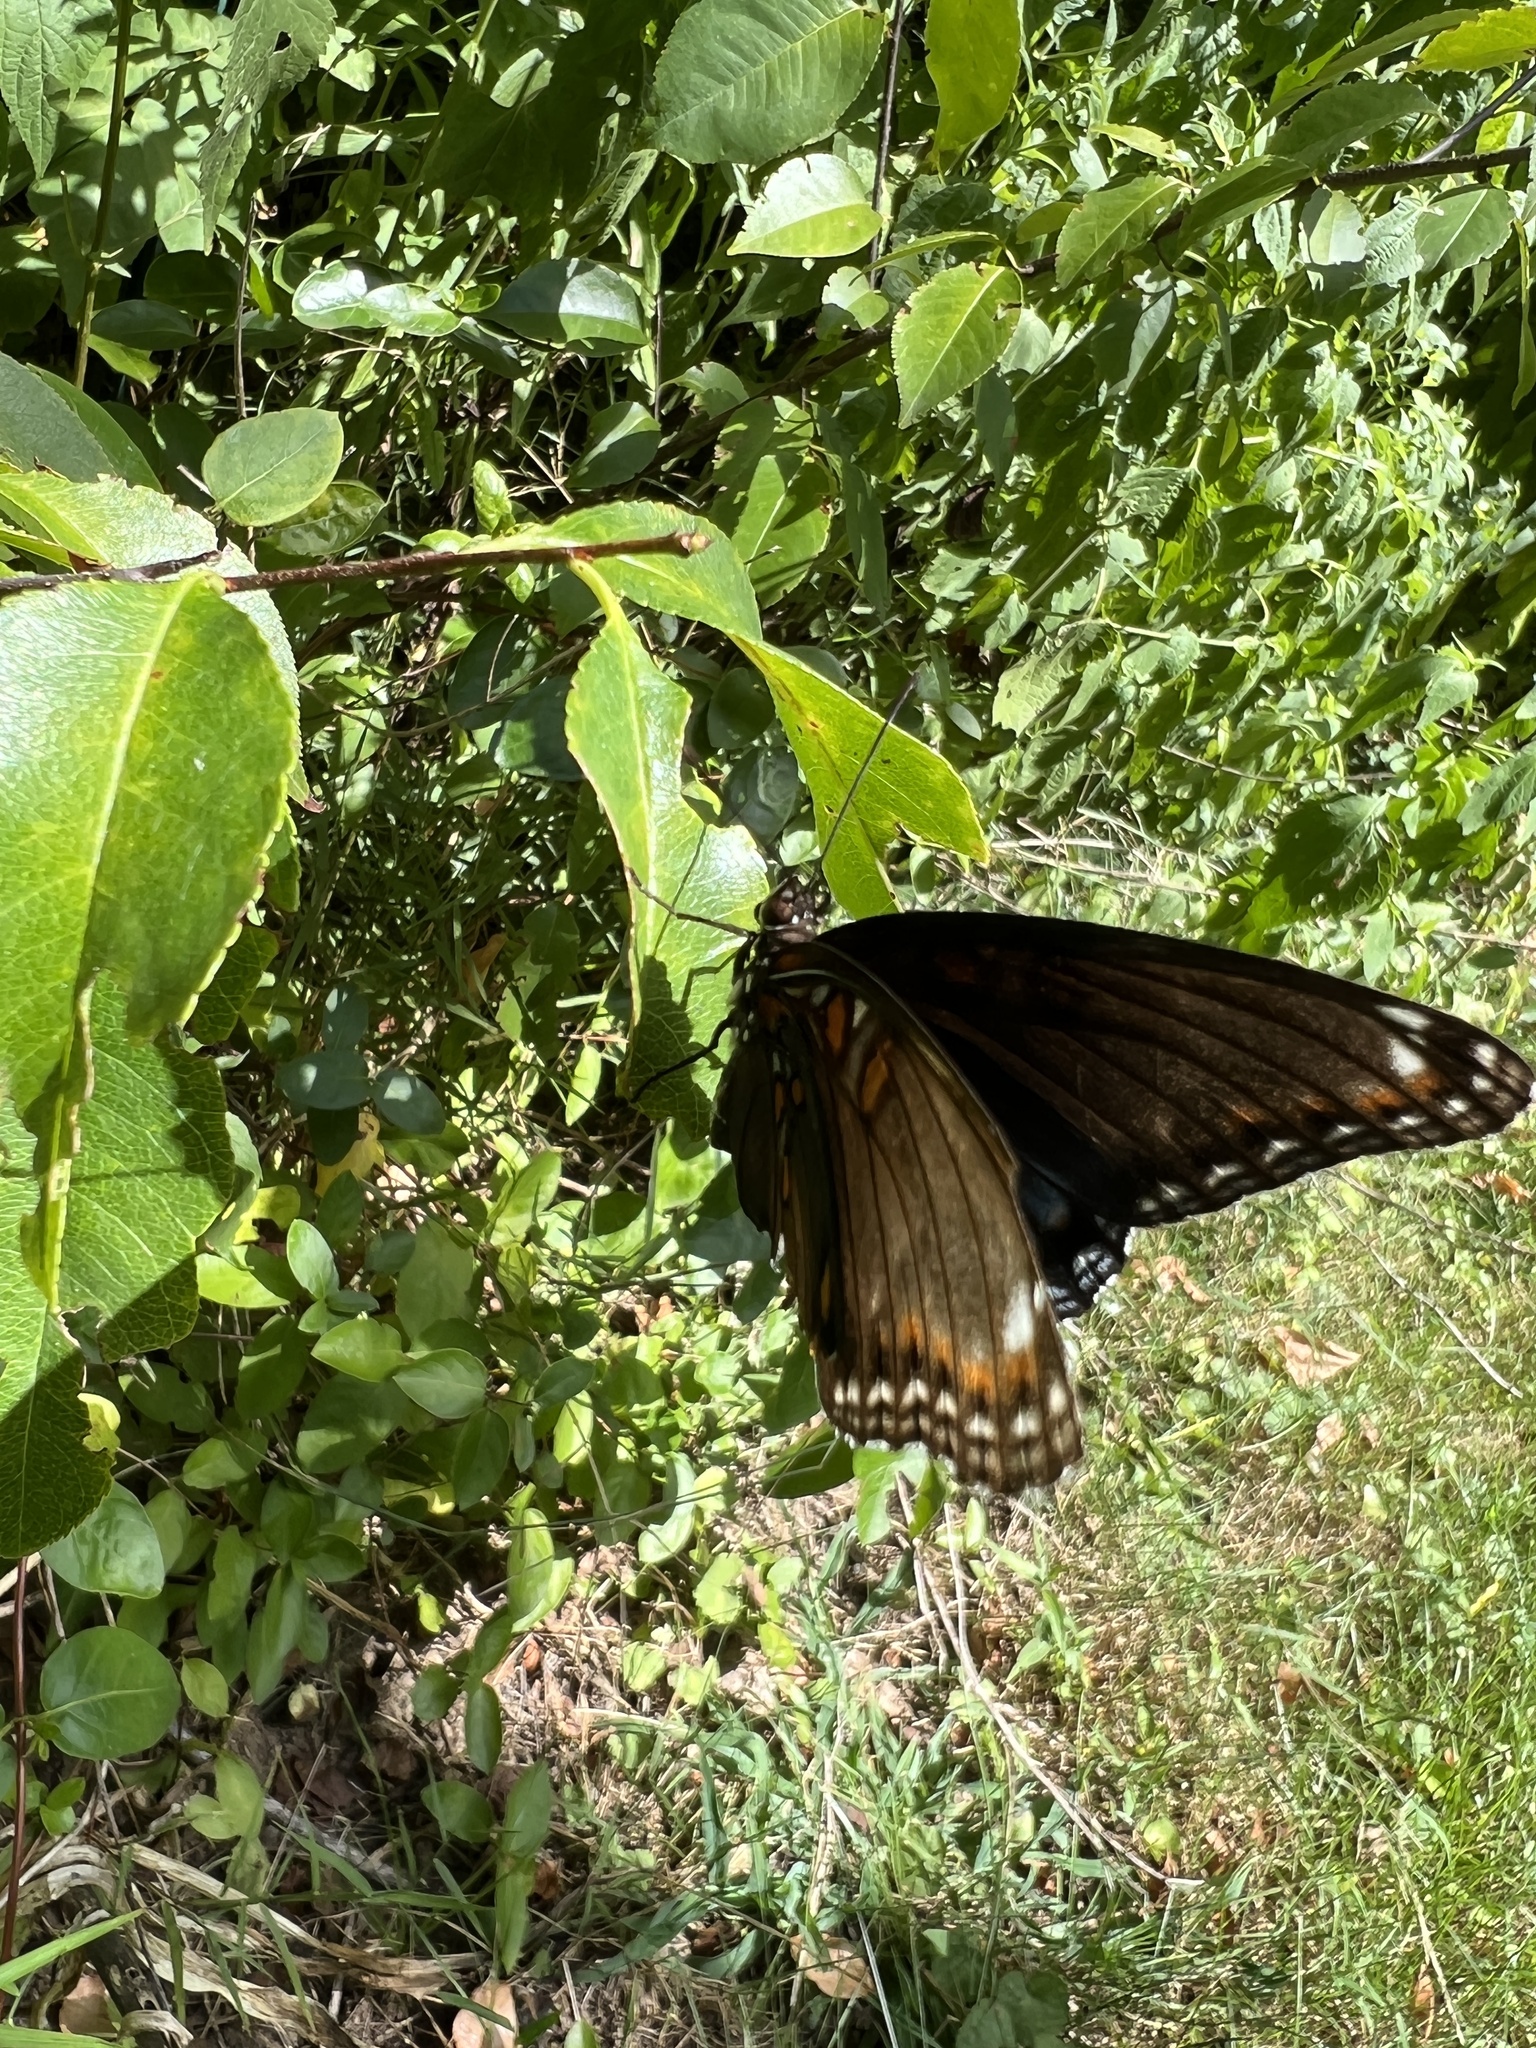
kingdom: Animalia
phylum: Arthropoda
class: Insecta
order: Lepidoptera
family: Nymphalidae
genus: Limenitis
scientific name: Limenitis arthemis
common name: Red-spotted admiral
